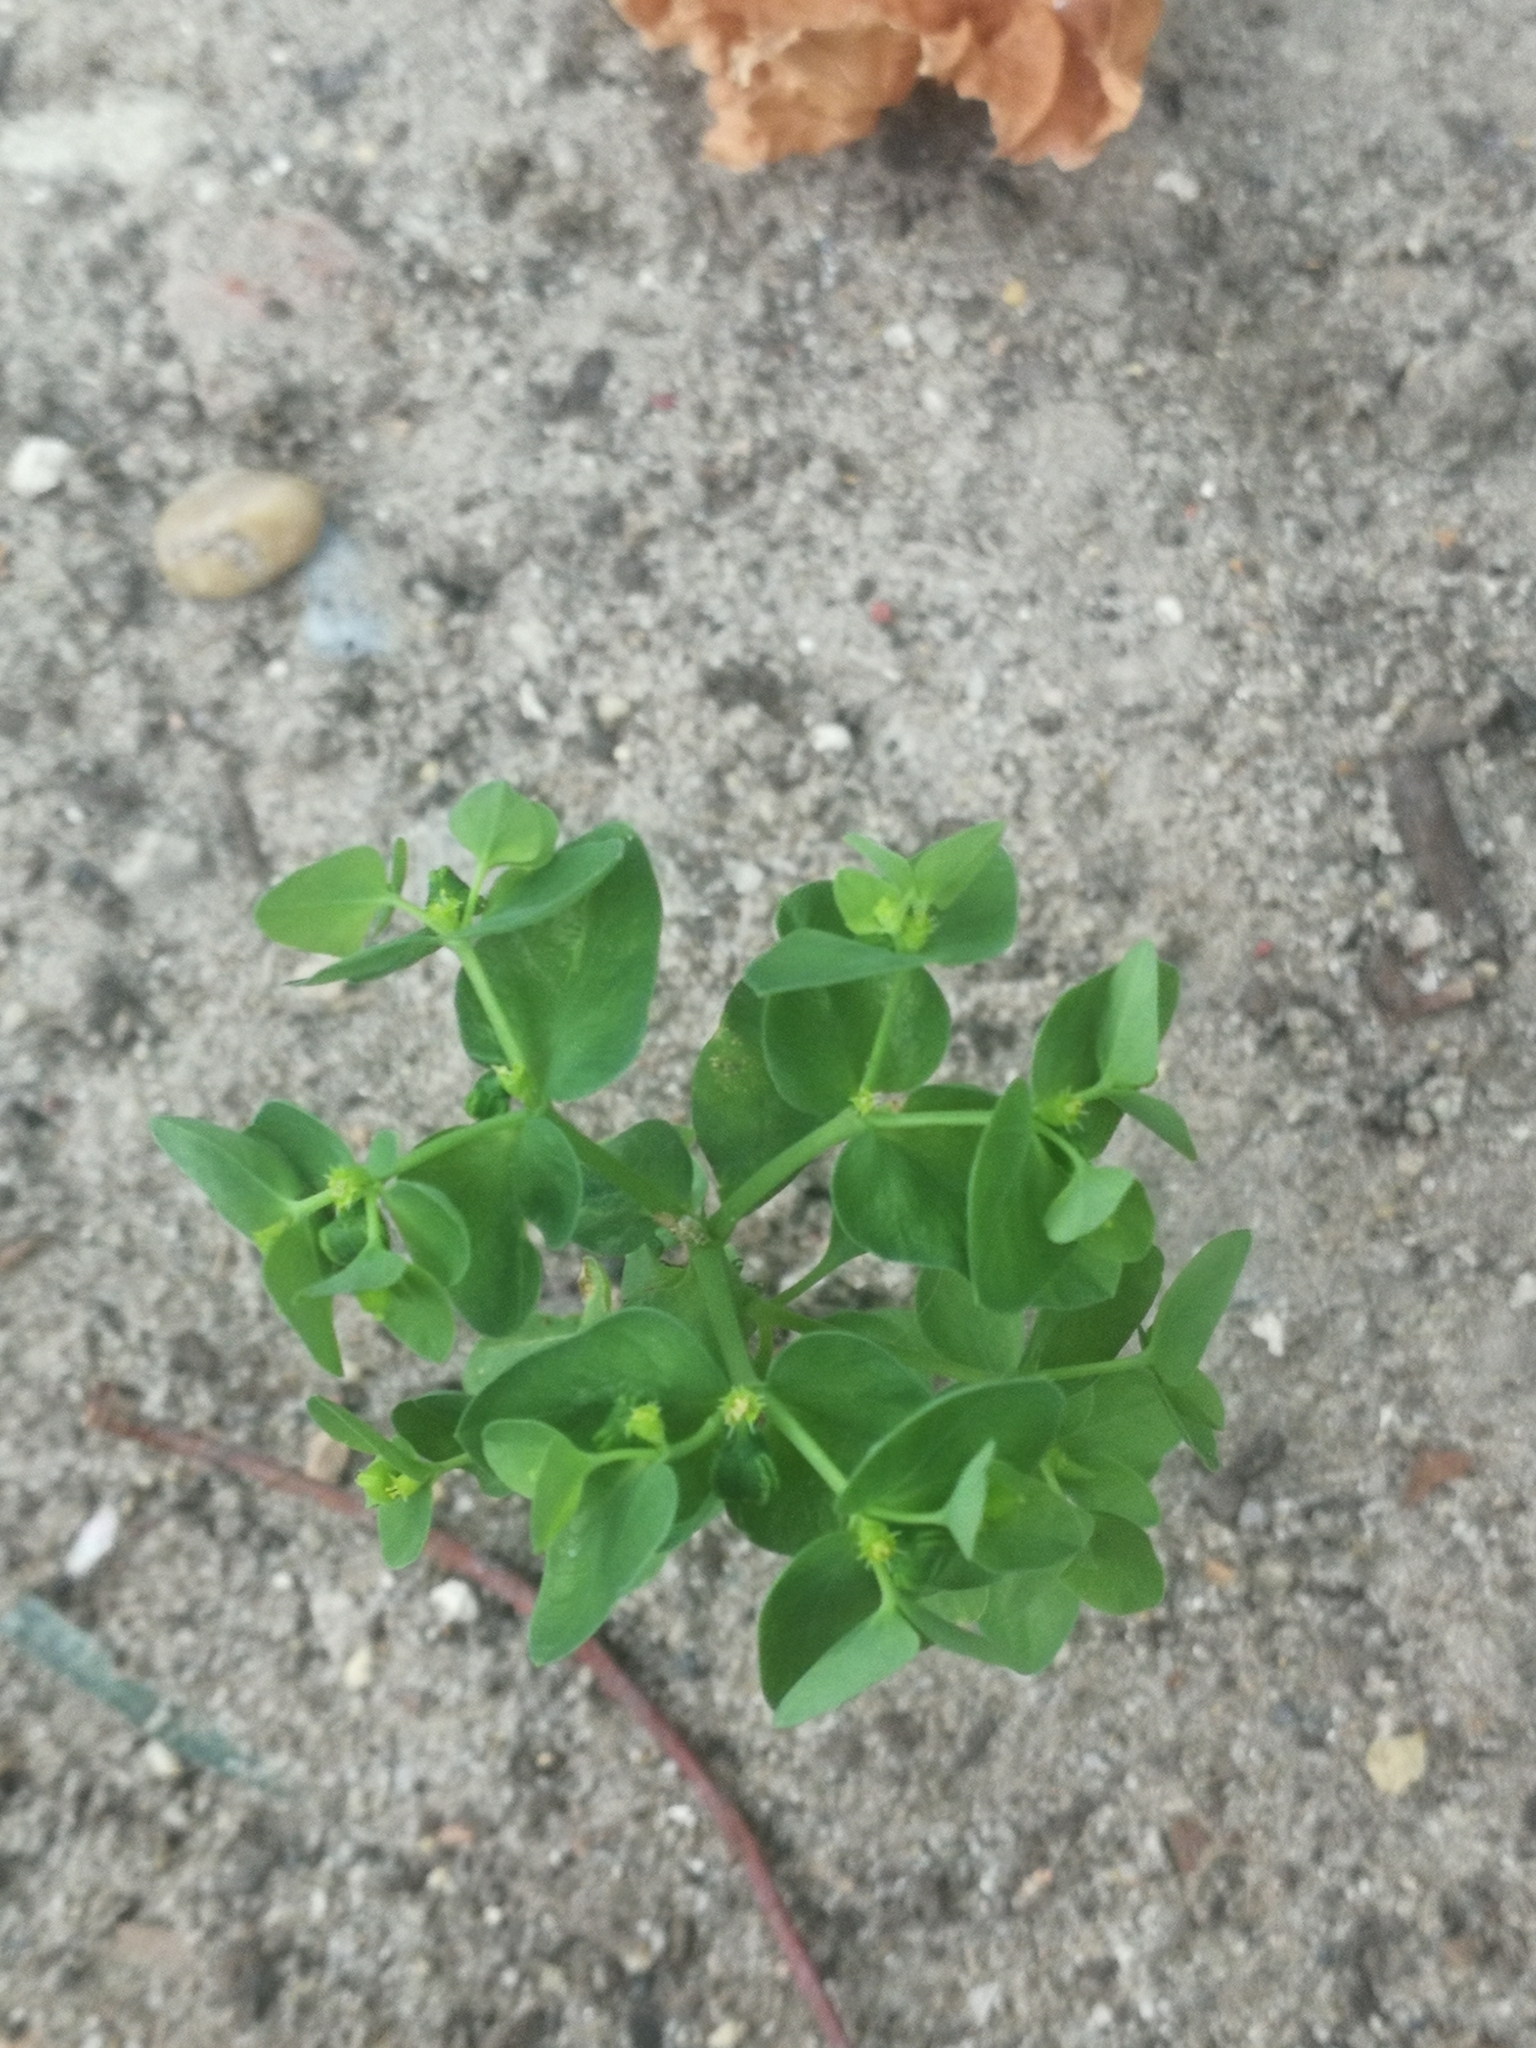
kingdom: Plantae
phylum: Tracheophyta
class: Magnoliopsida
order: Malpighiales
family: Euphorbiaceae
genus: Euphorbia
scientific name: Euphorbia peplus
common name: Petty spurge
